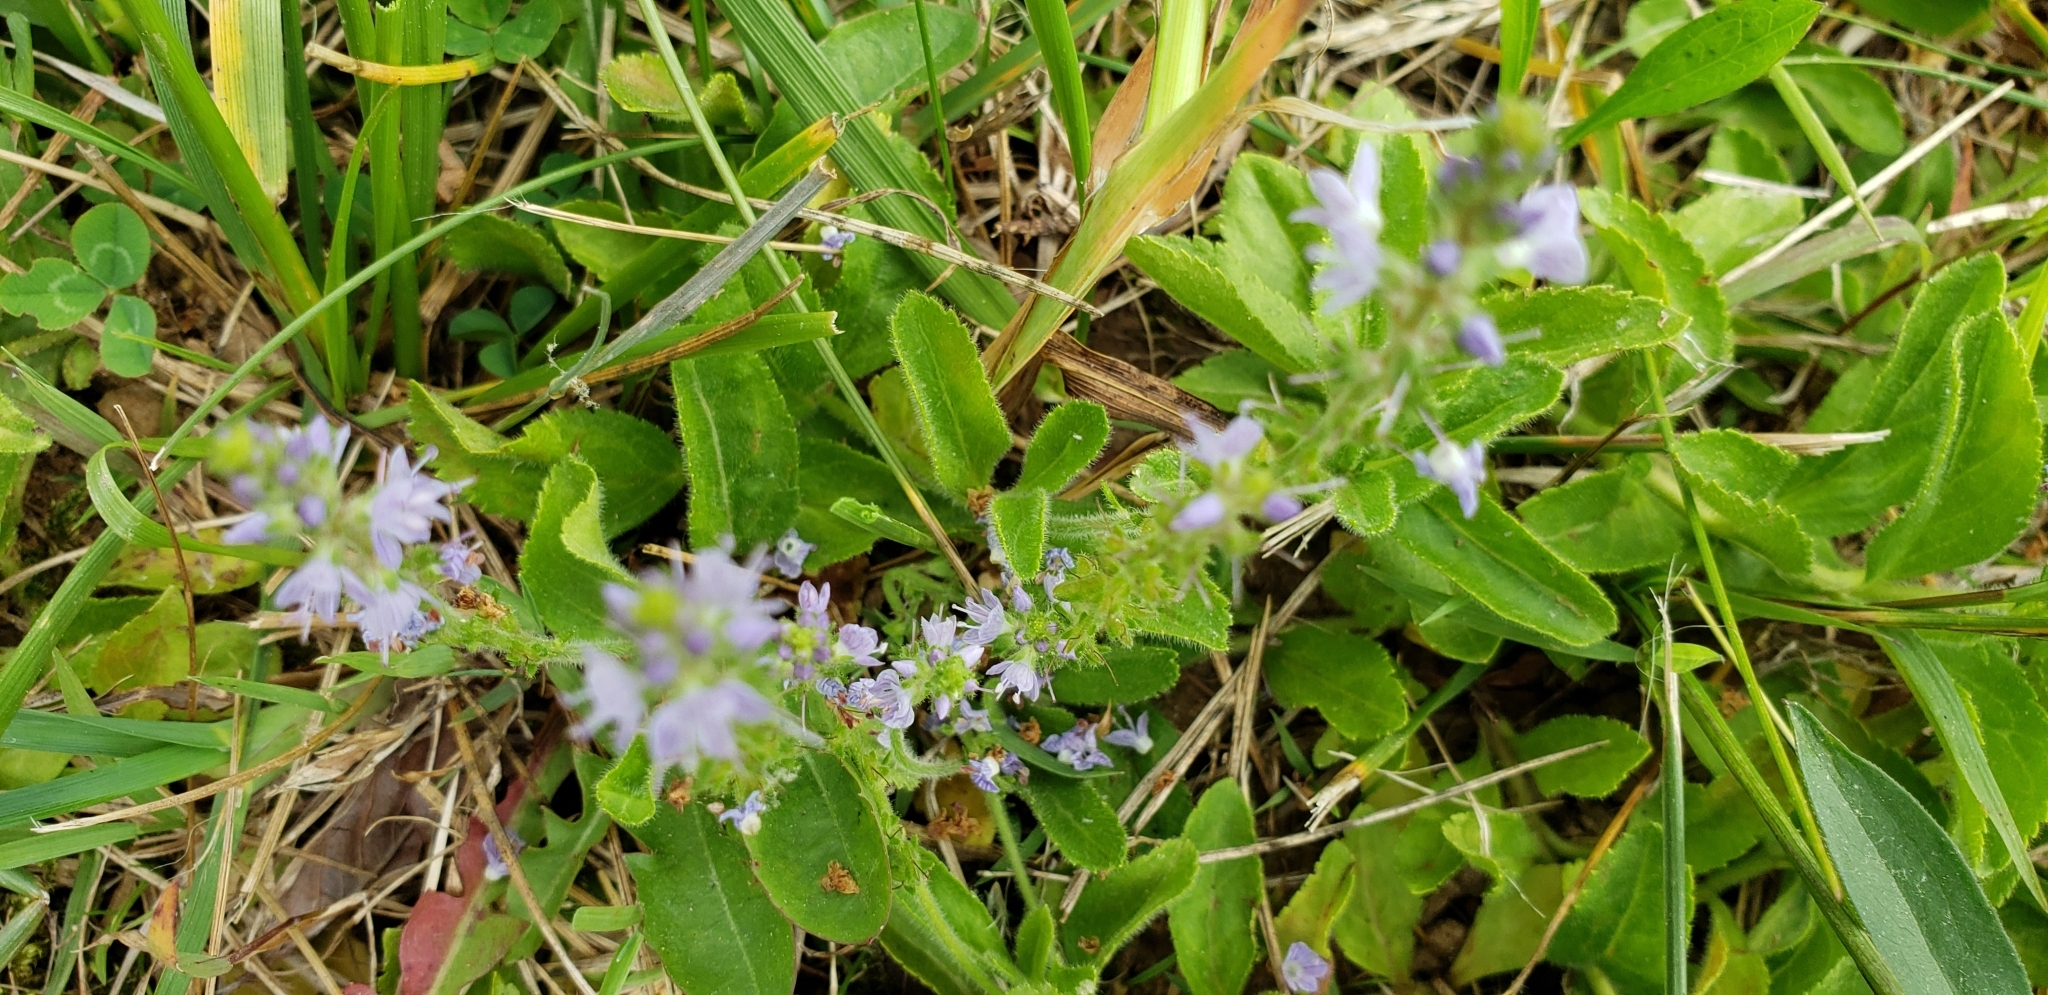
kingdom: Plantae
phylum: Tracheophyta
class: Magnoliopsida
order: Lamiales
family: Plantaginaceae
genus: Veronica
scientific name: Veronica officinalis
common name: Common speedwell
